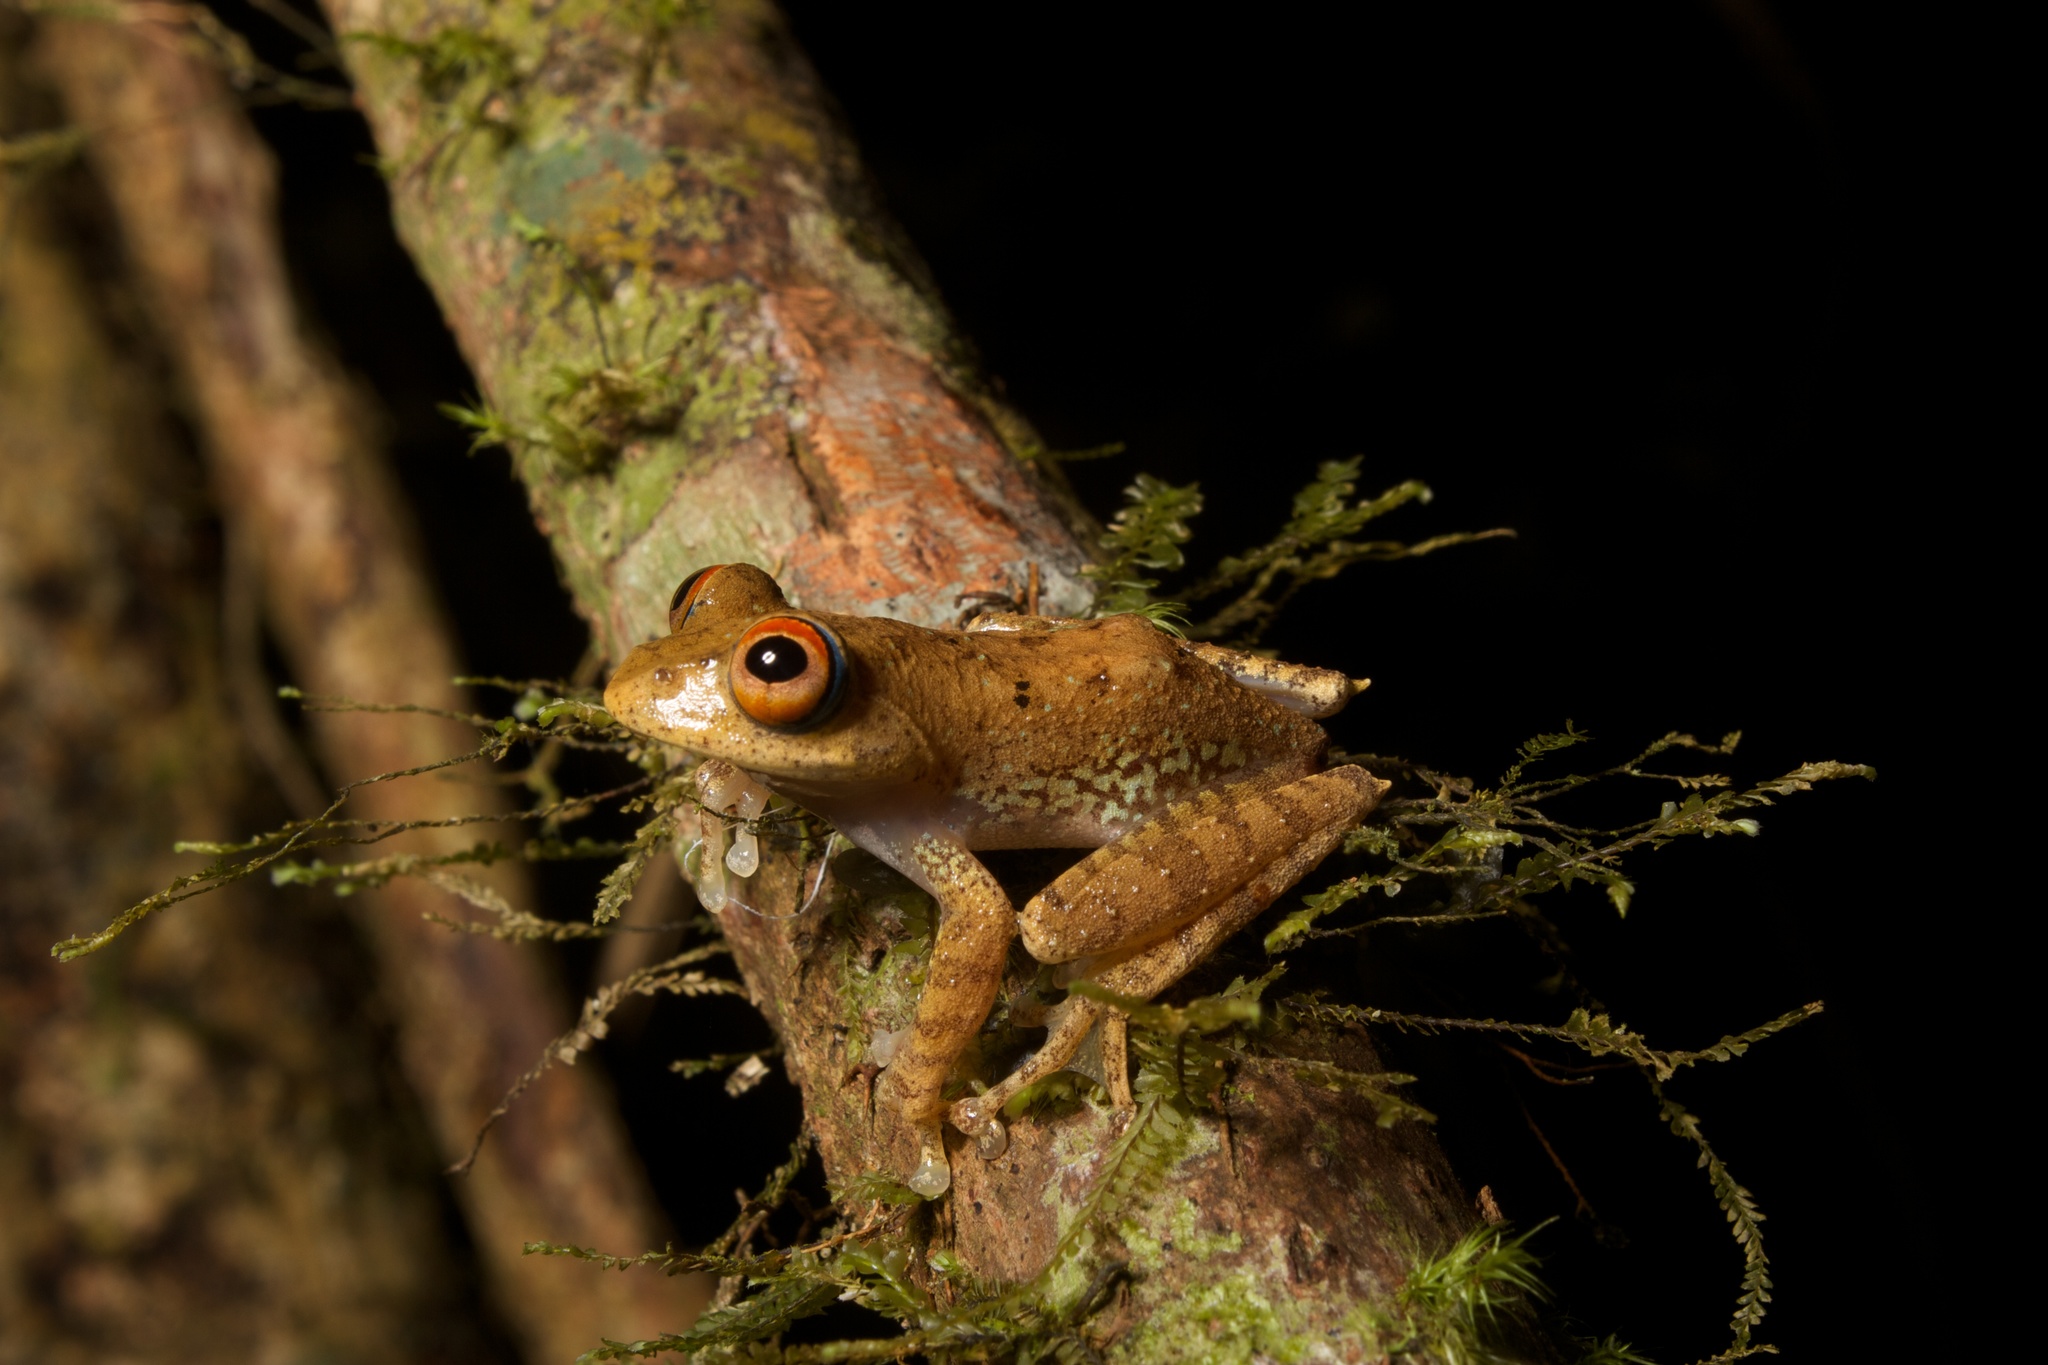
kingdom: Animalia
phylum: Chordata
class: Amphibia
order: Anura
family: Mantellidae
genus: Boophis
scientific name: Boophis quasiboehmei
